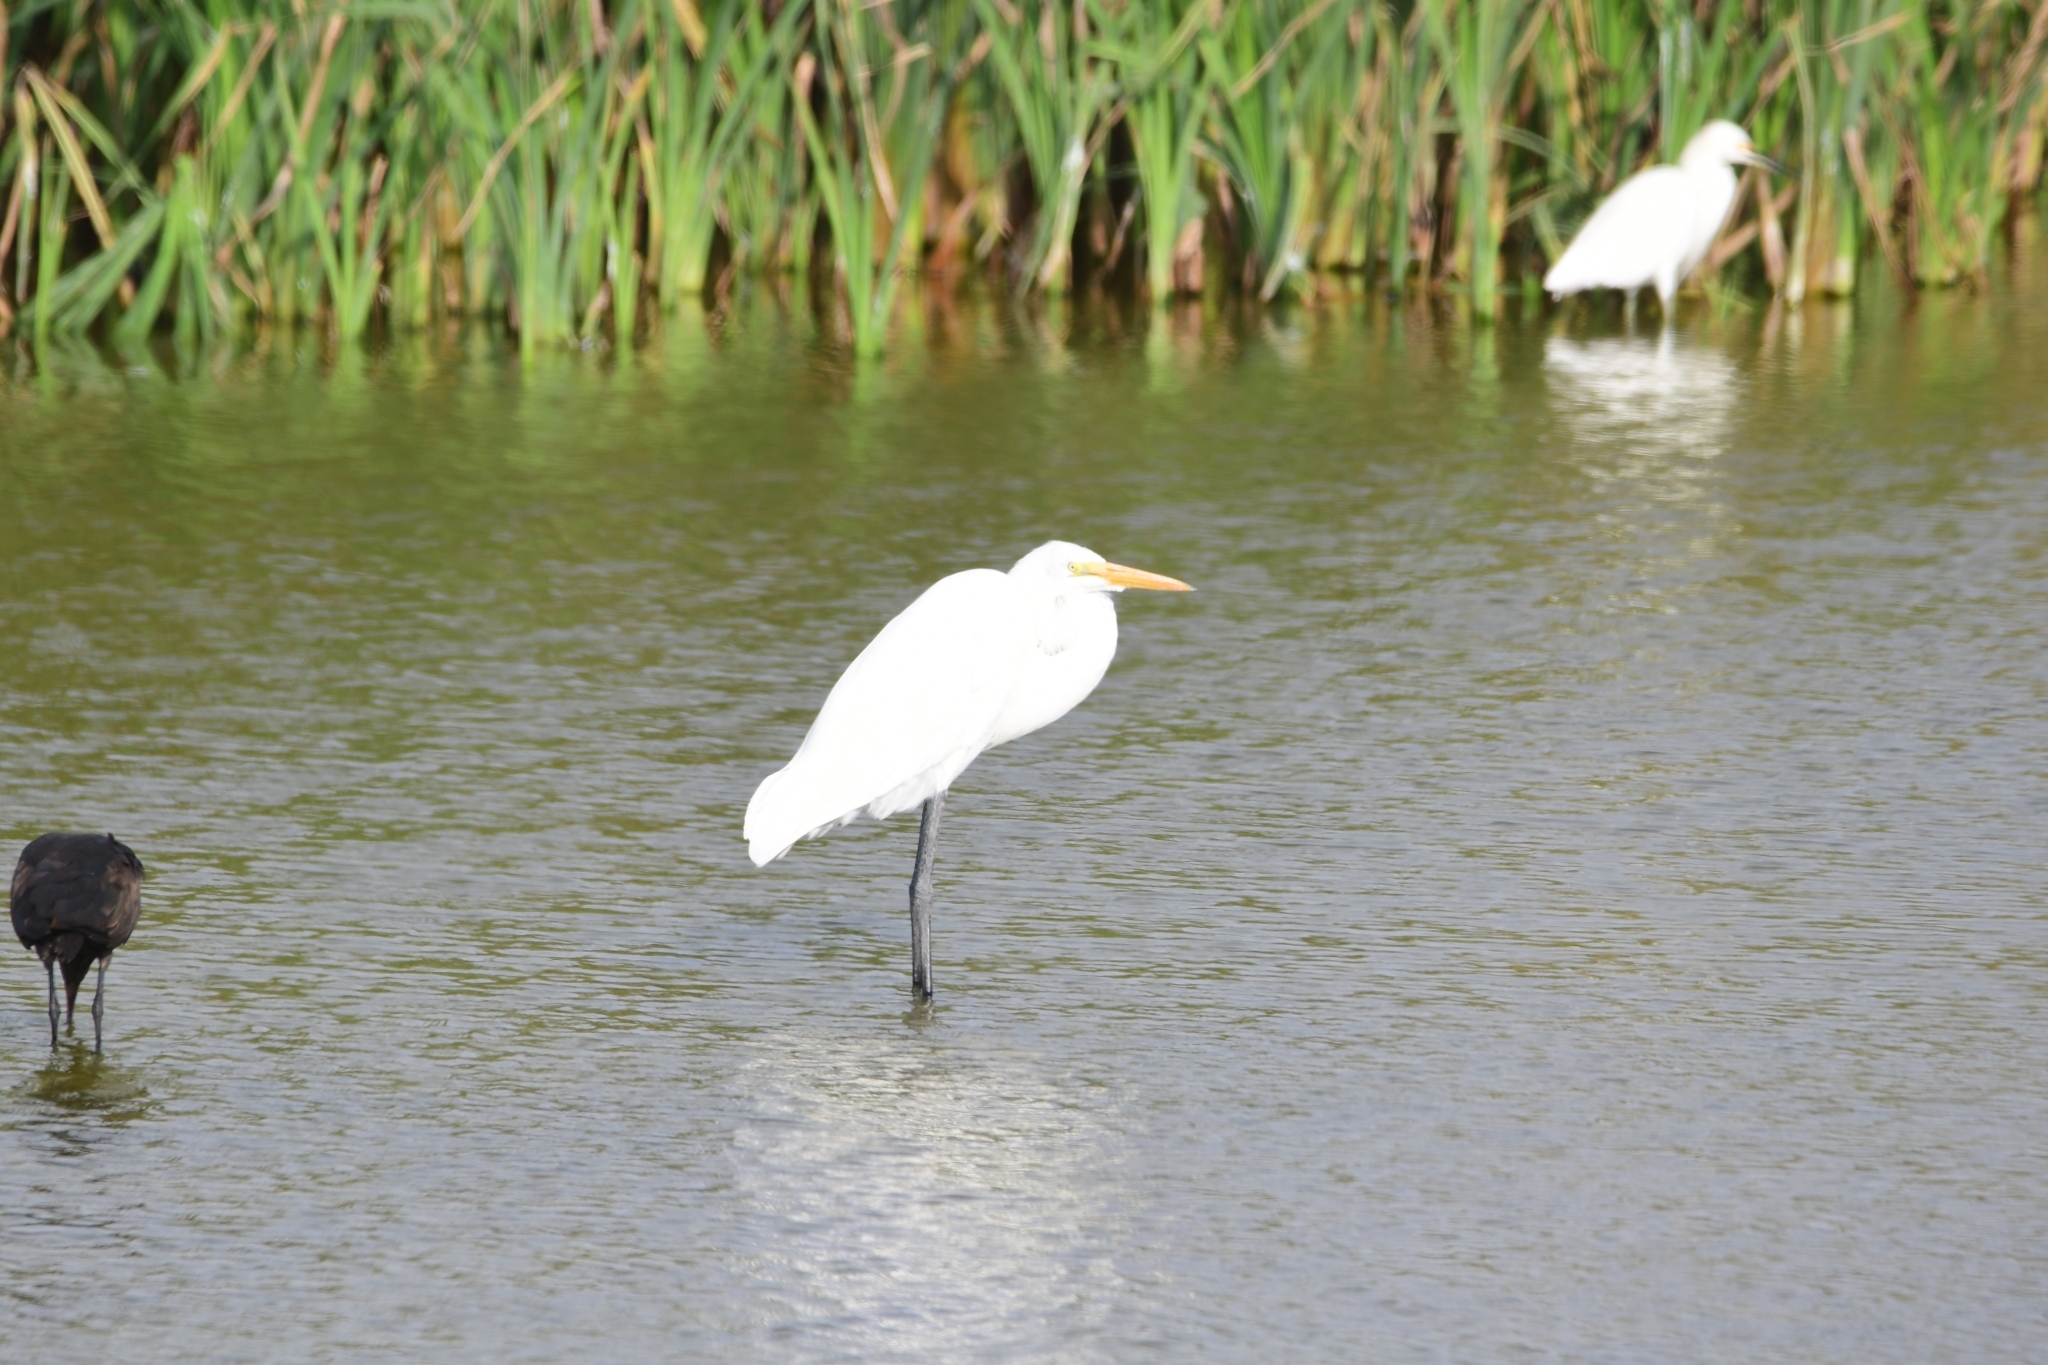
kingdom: Animalia
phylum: Chordata
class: Aves
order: Pelecaniformes
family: Ardeidae
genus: Ardea
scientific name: Ardea alba
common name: Great egret
